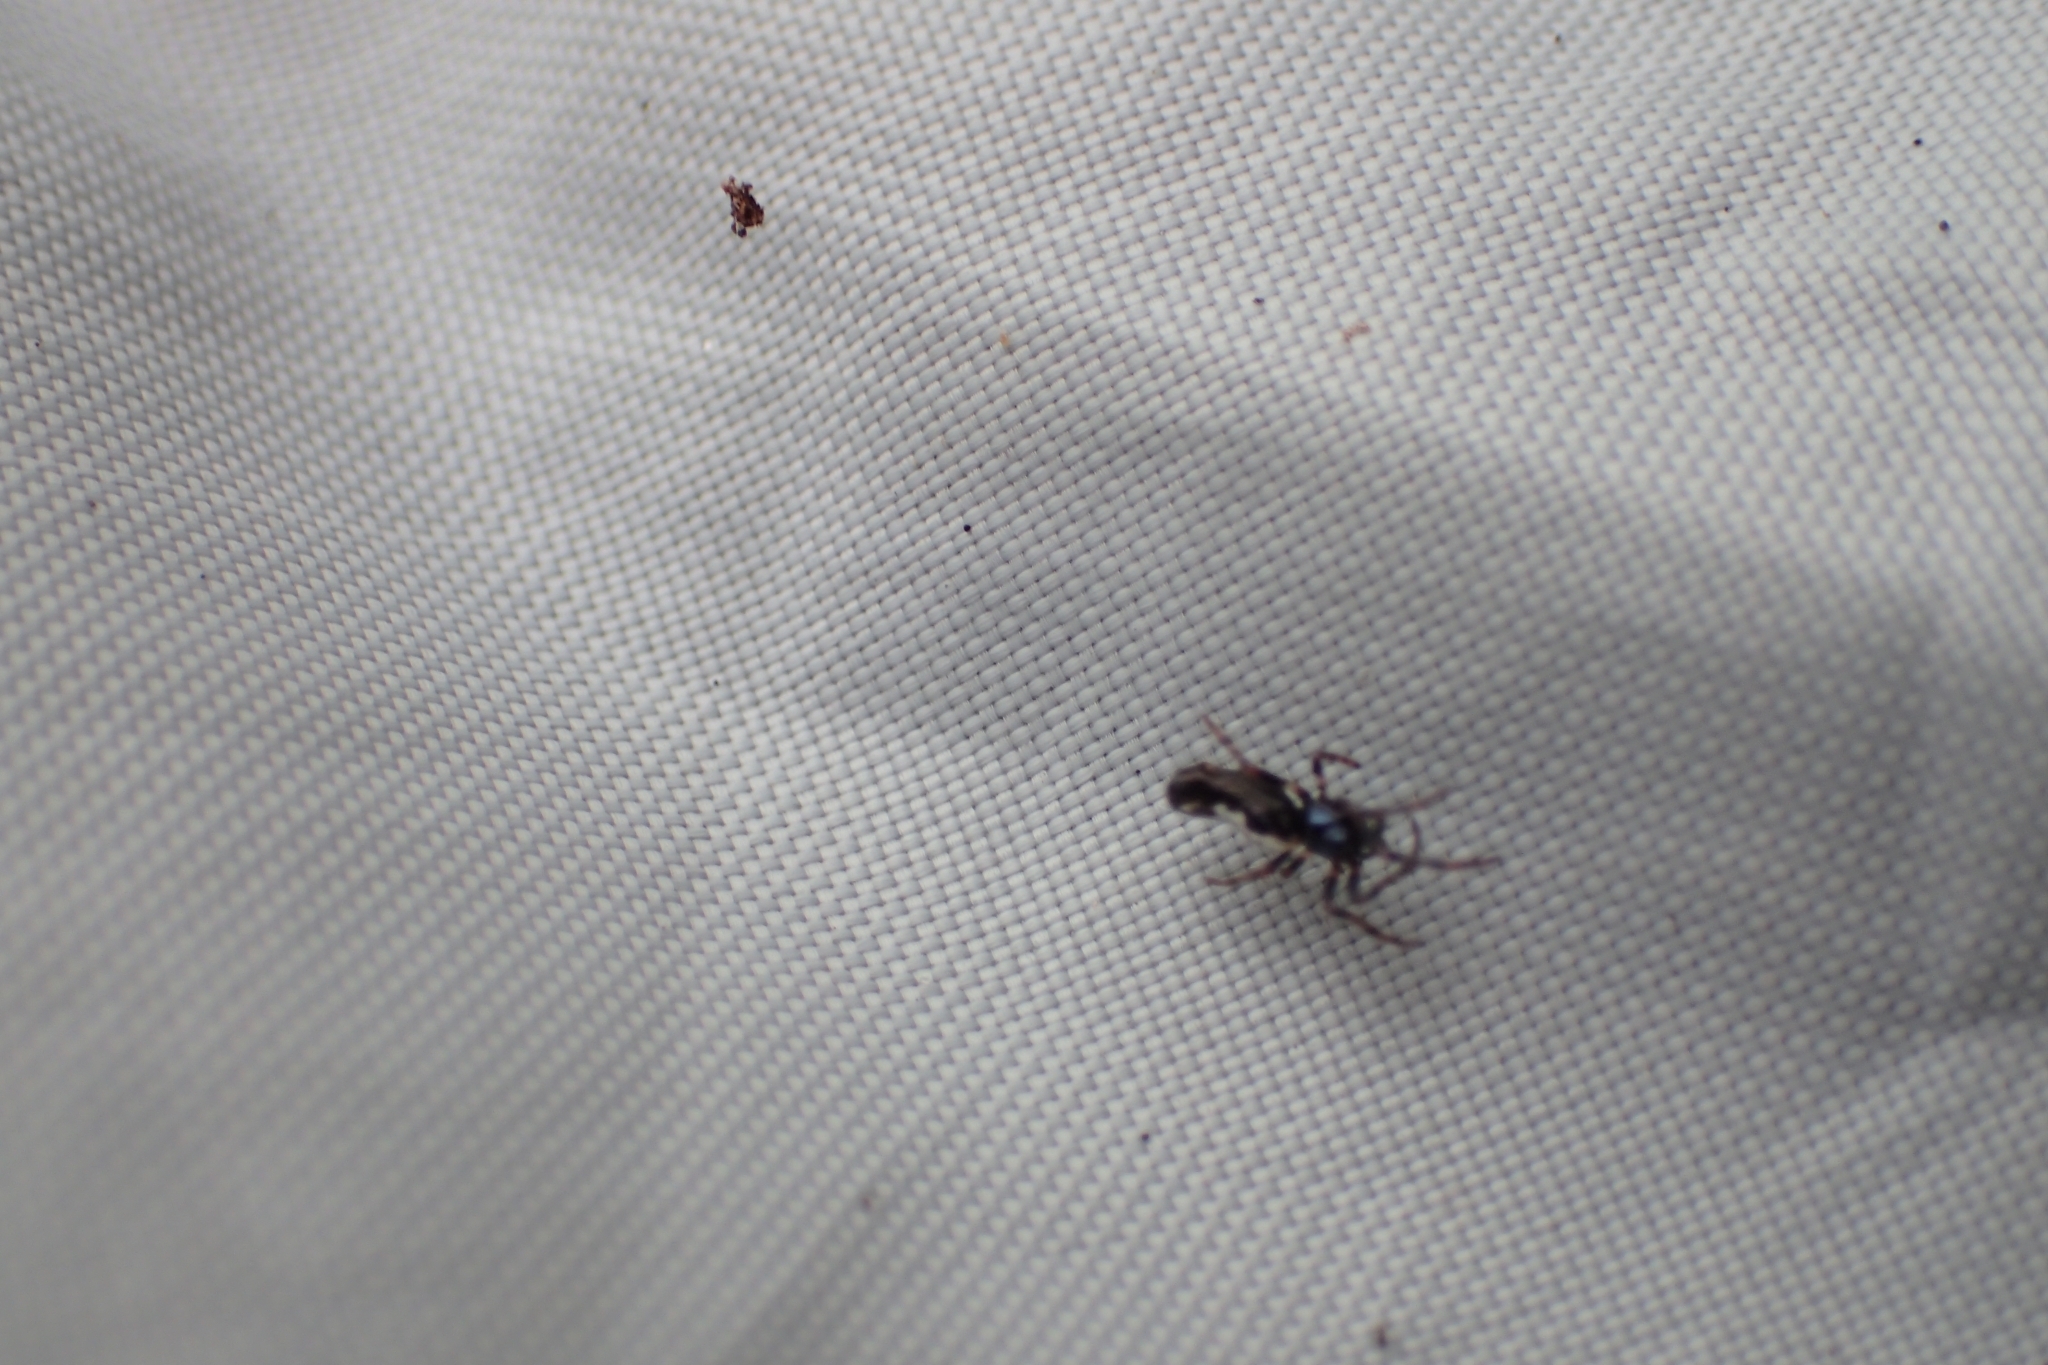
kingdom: Animalia
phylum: Arthropoda
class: Arachnida
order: Araneae
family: Araneidae
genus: Cyclosa
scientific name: Cyclosa trilobata
